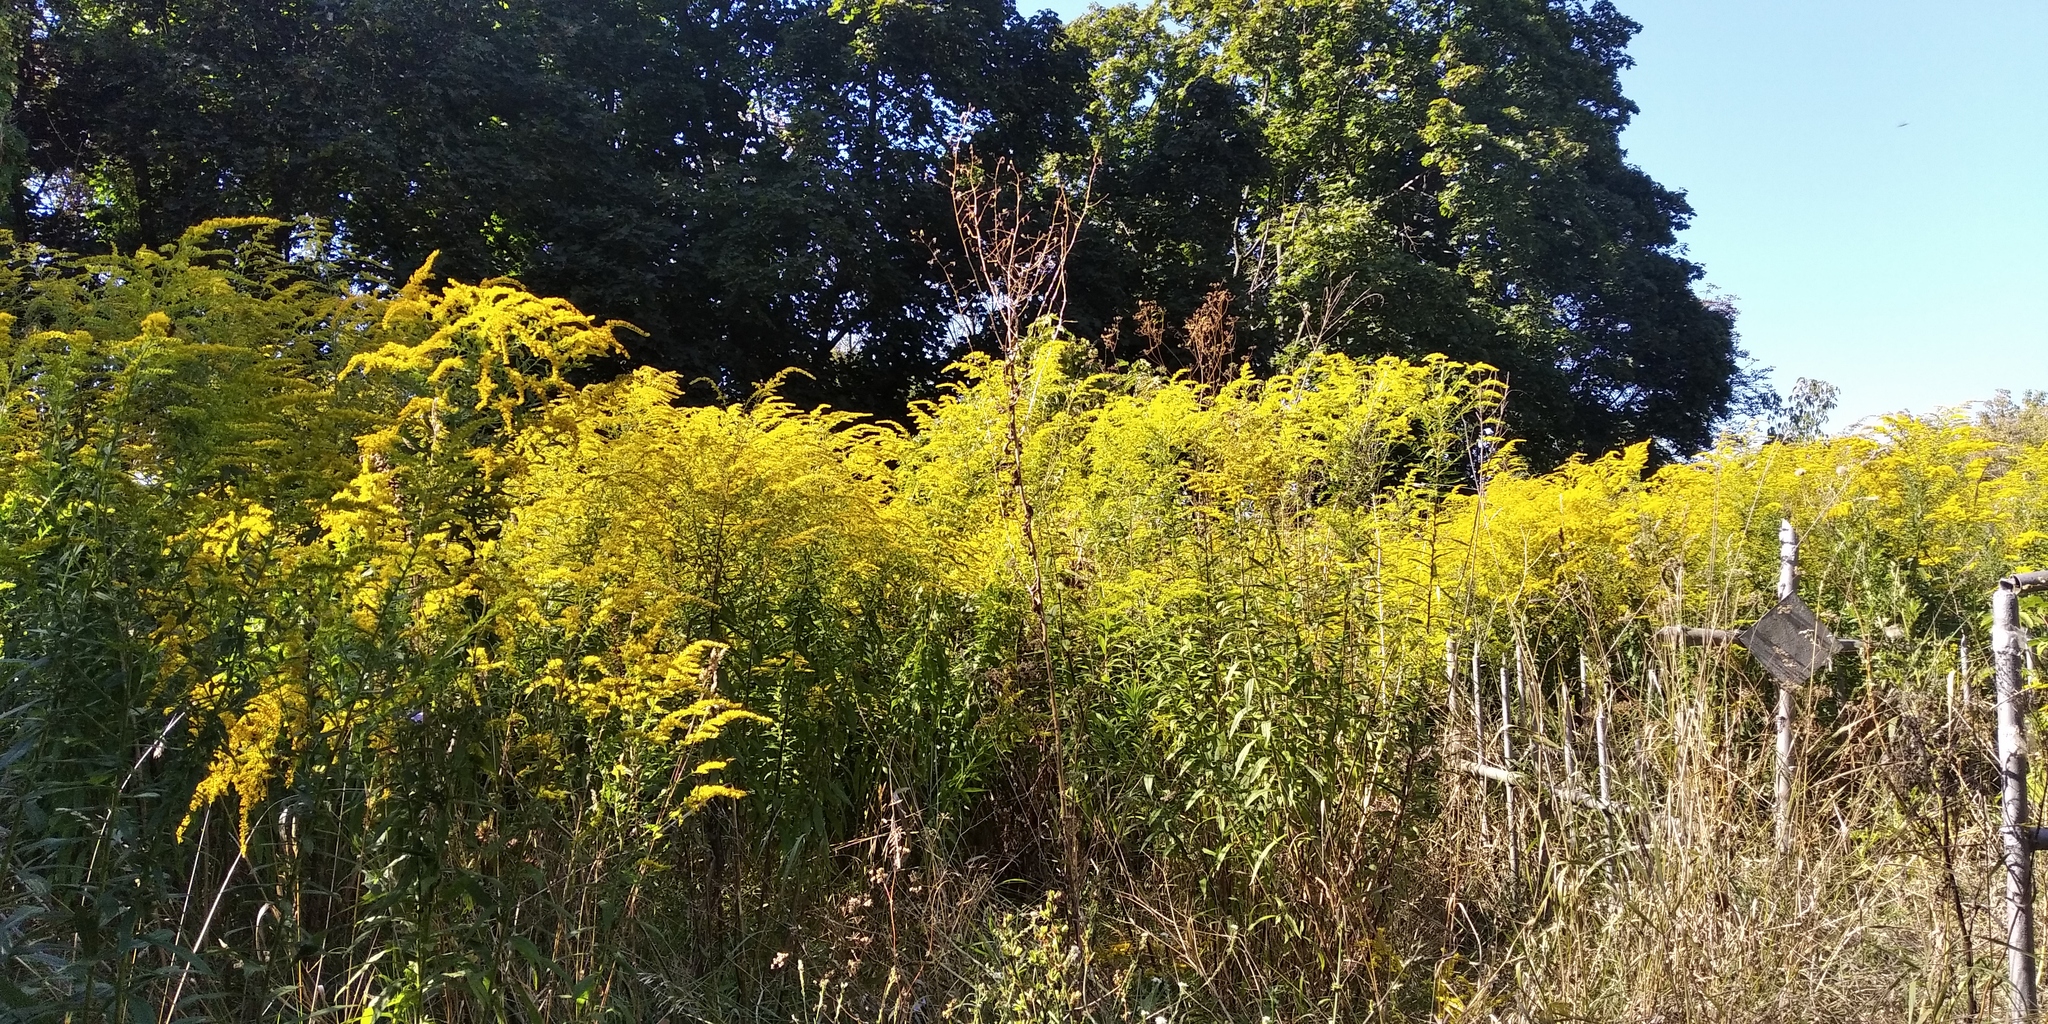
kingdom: Plantae
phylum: Tracheophyta
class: Magnoliopsida
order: Asterales
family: Asteraceae
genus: Solidago
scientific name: Solidago canadensis
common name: Canada goldenrod
